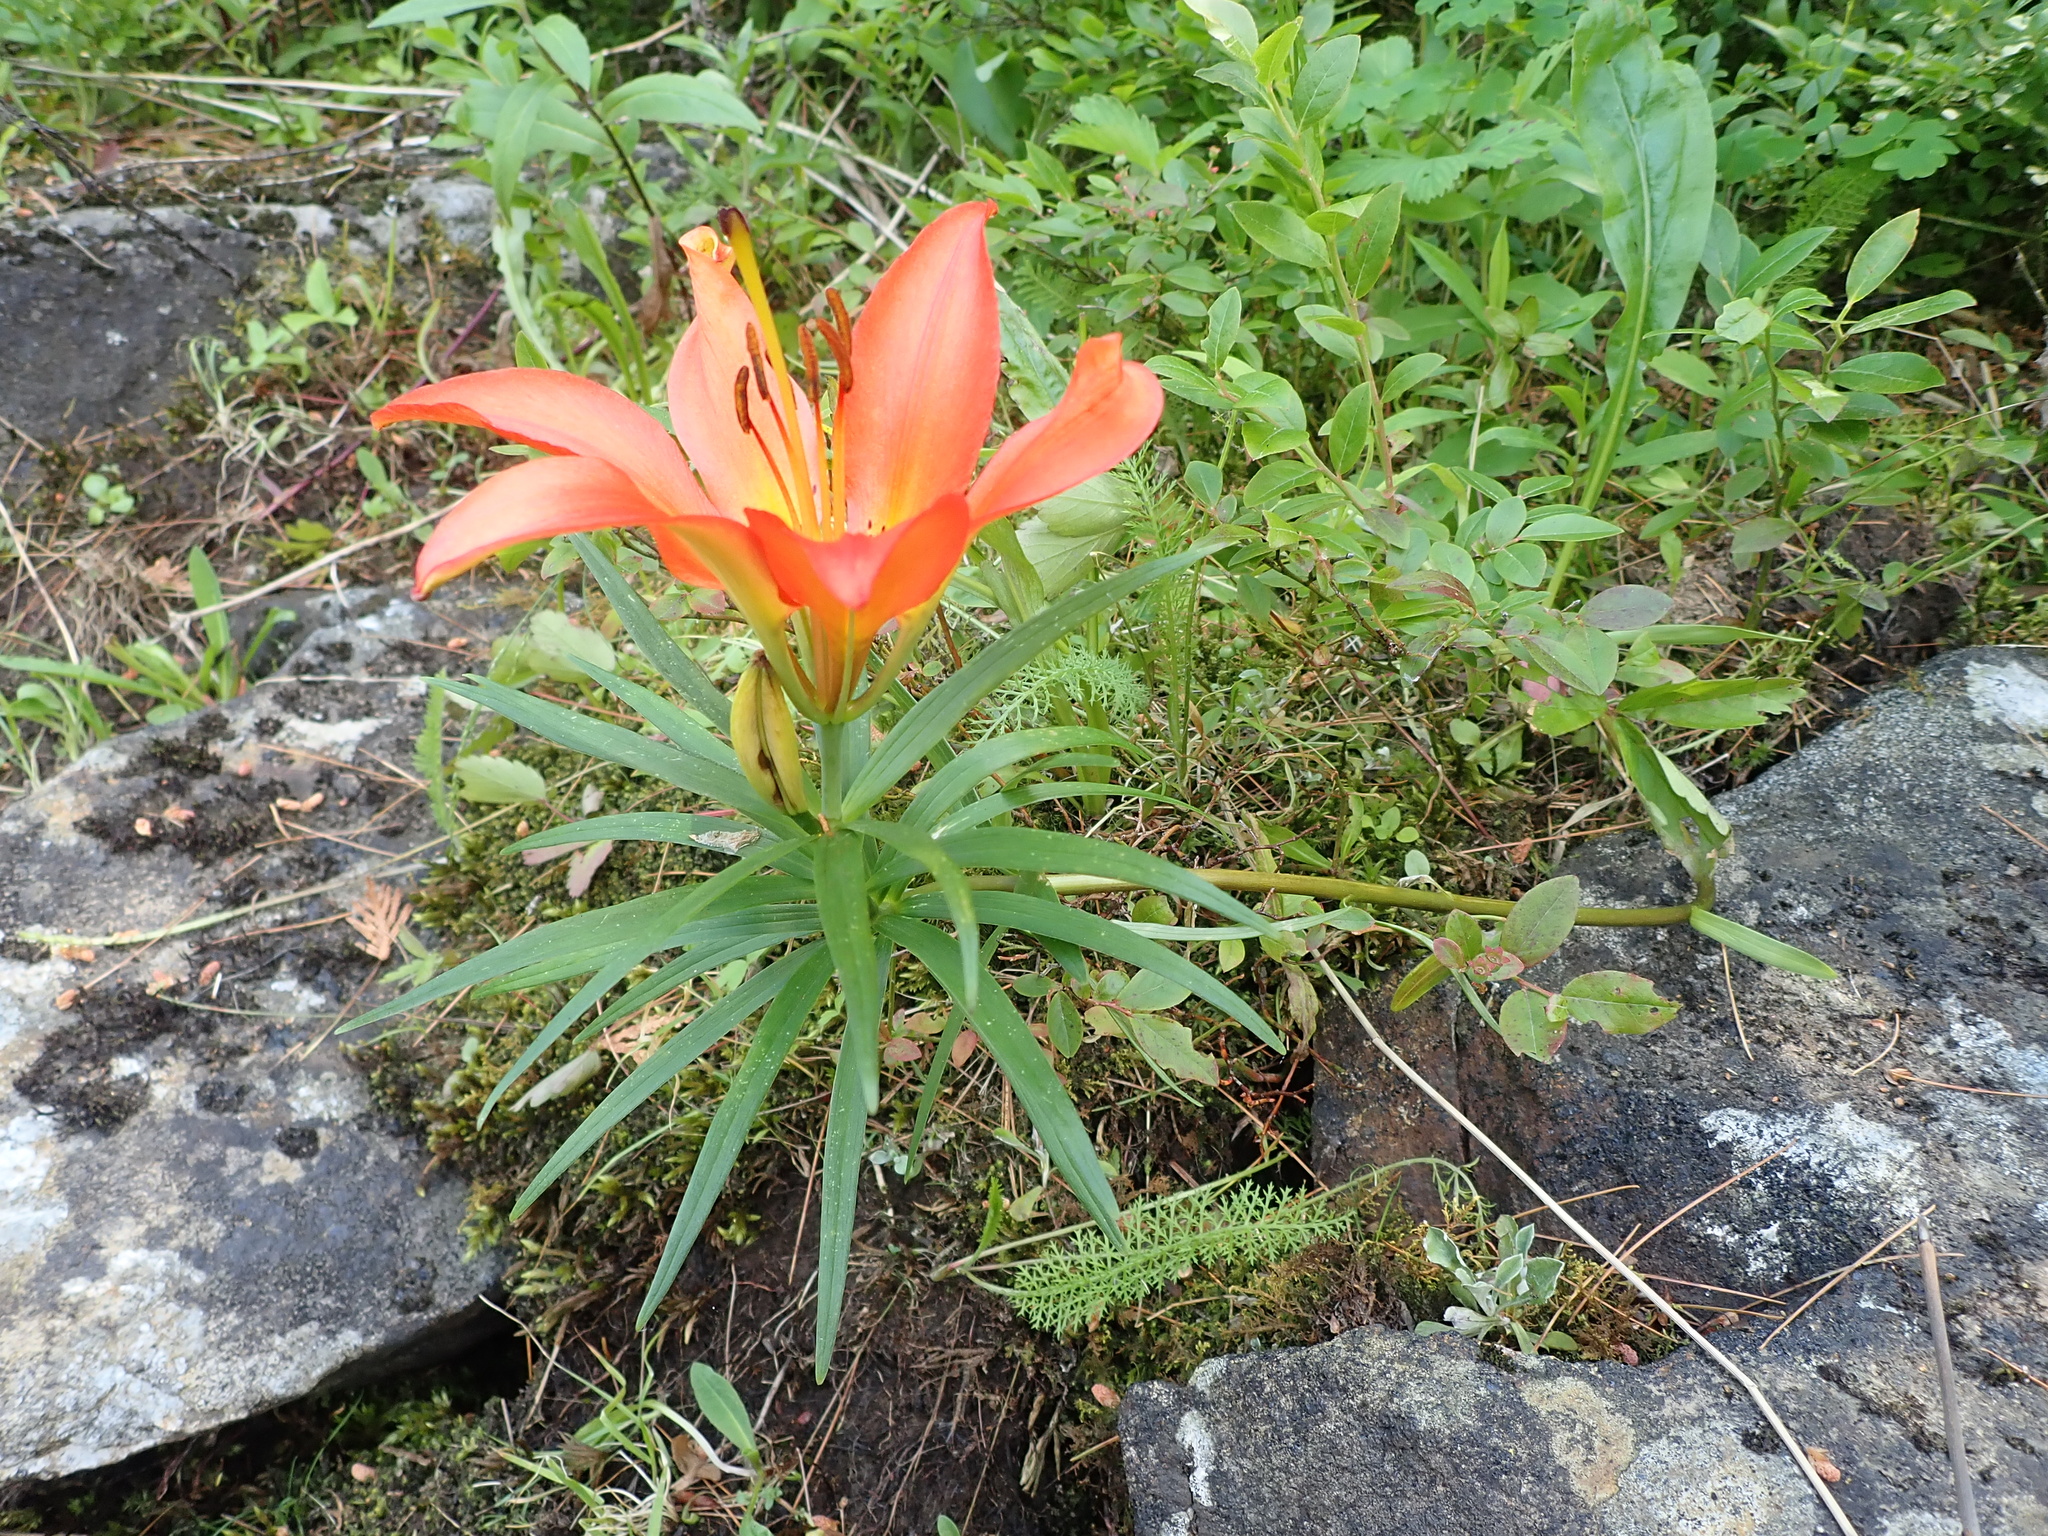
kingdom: Plantae
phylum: Tracheophyta
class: Liliopsida
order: Liliales
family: Liliaceae
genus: Lilium
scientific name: Lilium philadelphicum
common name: Red lily
